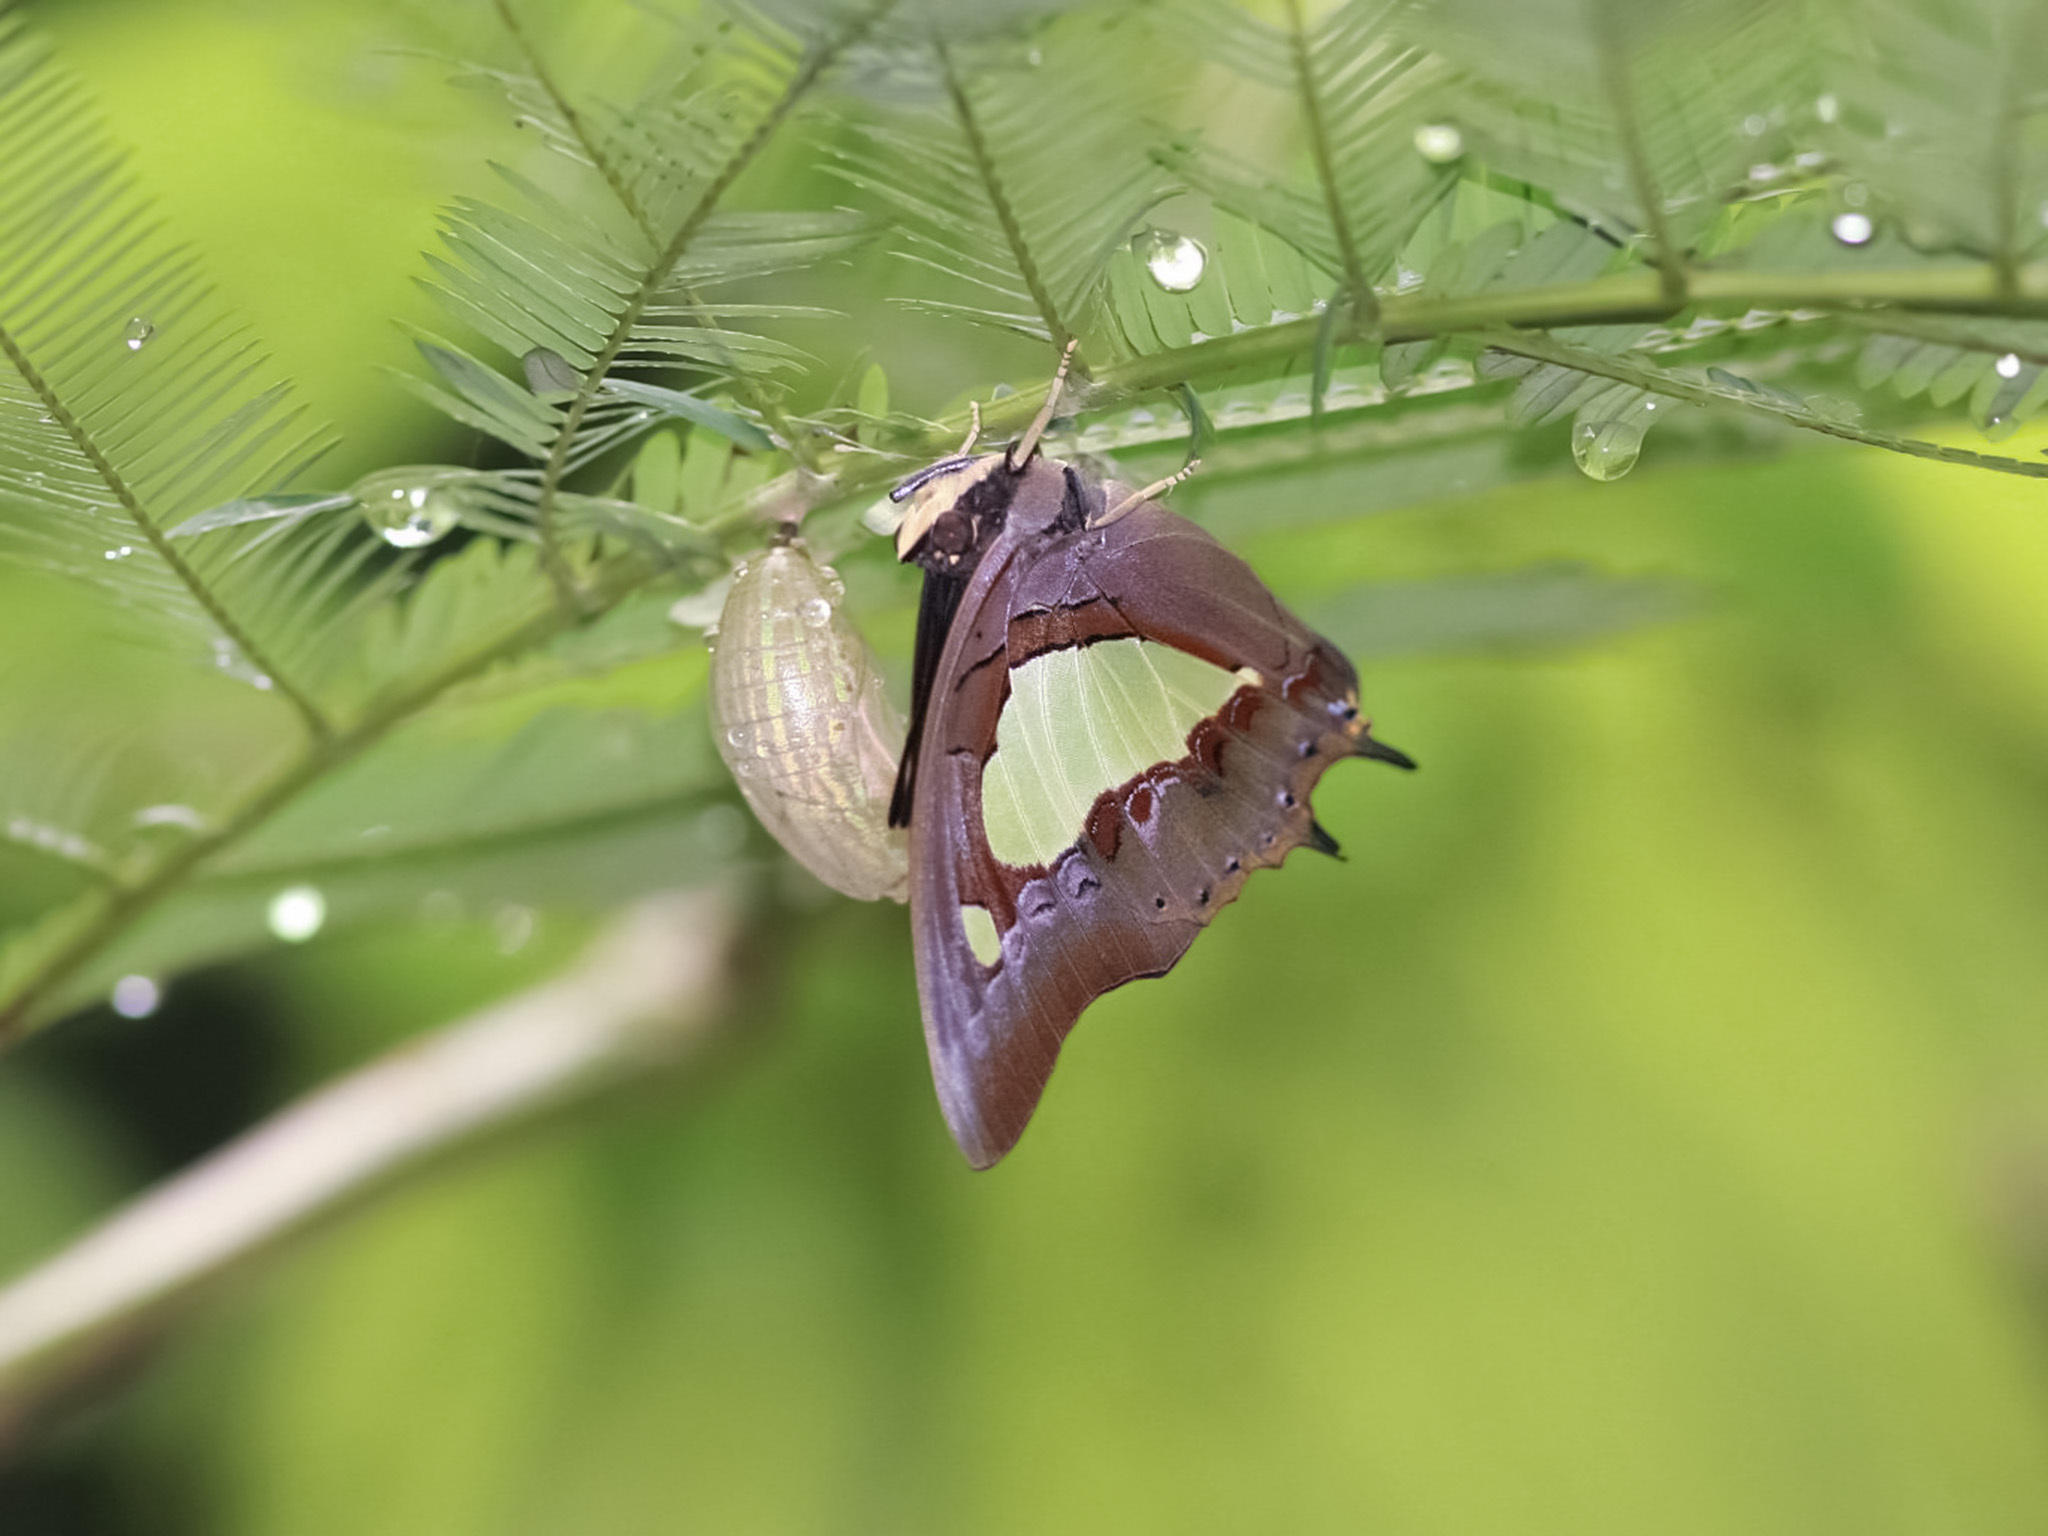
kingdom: Animalia
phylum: Arthropoda
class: Insecta
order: Lepidoptera
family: Nymphalidae
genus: Polyura
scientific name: Polyura athamas
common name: Common nawab
